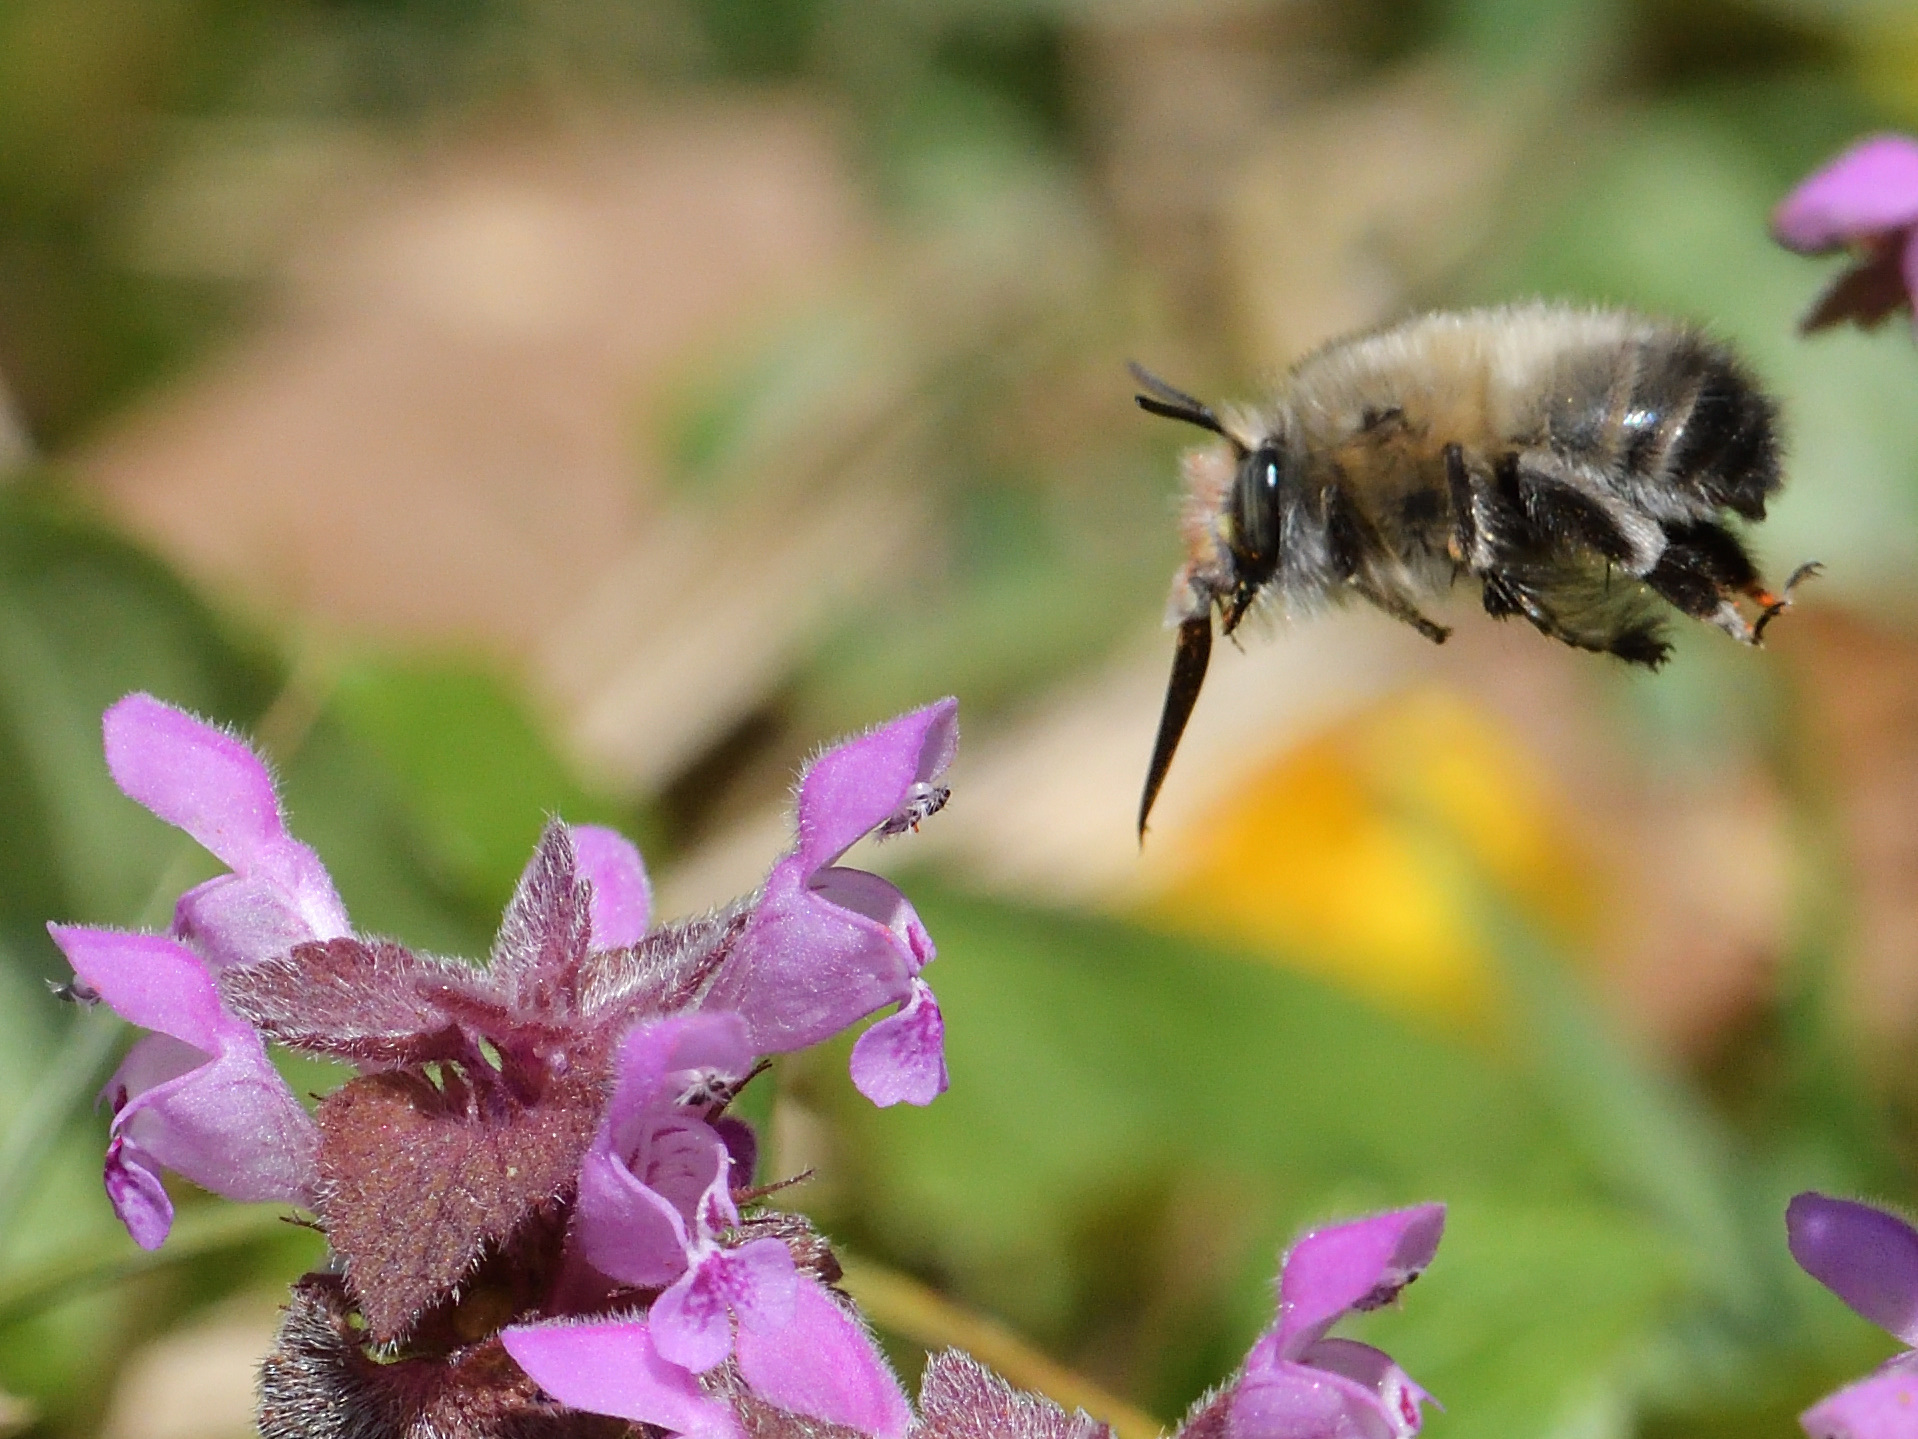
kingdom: Animalia
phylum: Arthropoda
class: Insecta
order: Hymenoptera
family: Apidae
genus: Anthophora
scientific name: Anthophora plumipes
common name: Hairy-footed flower bee
